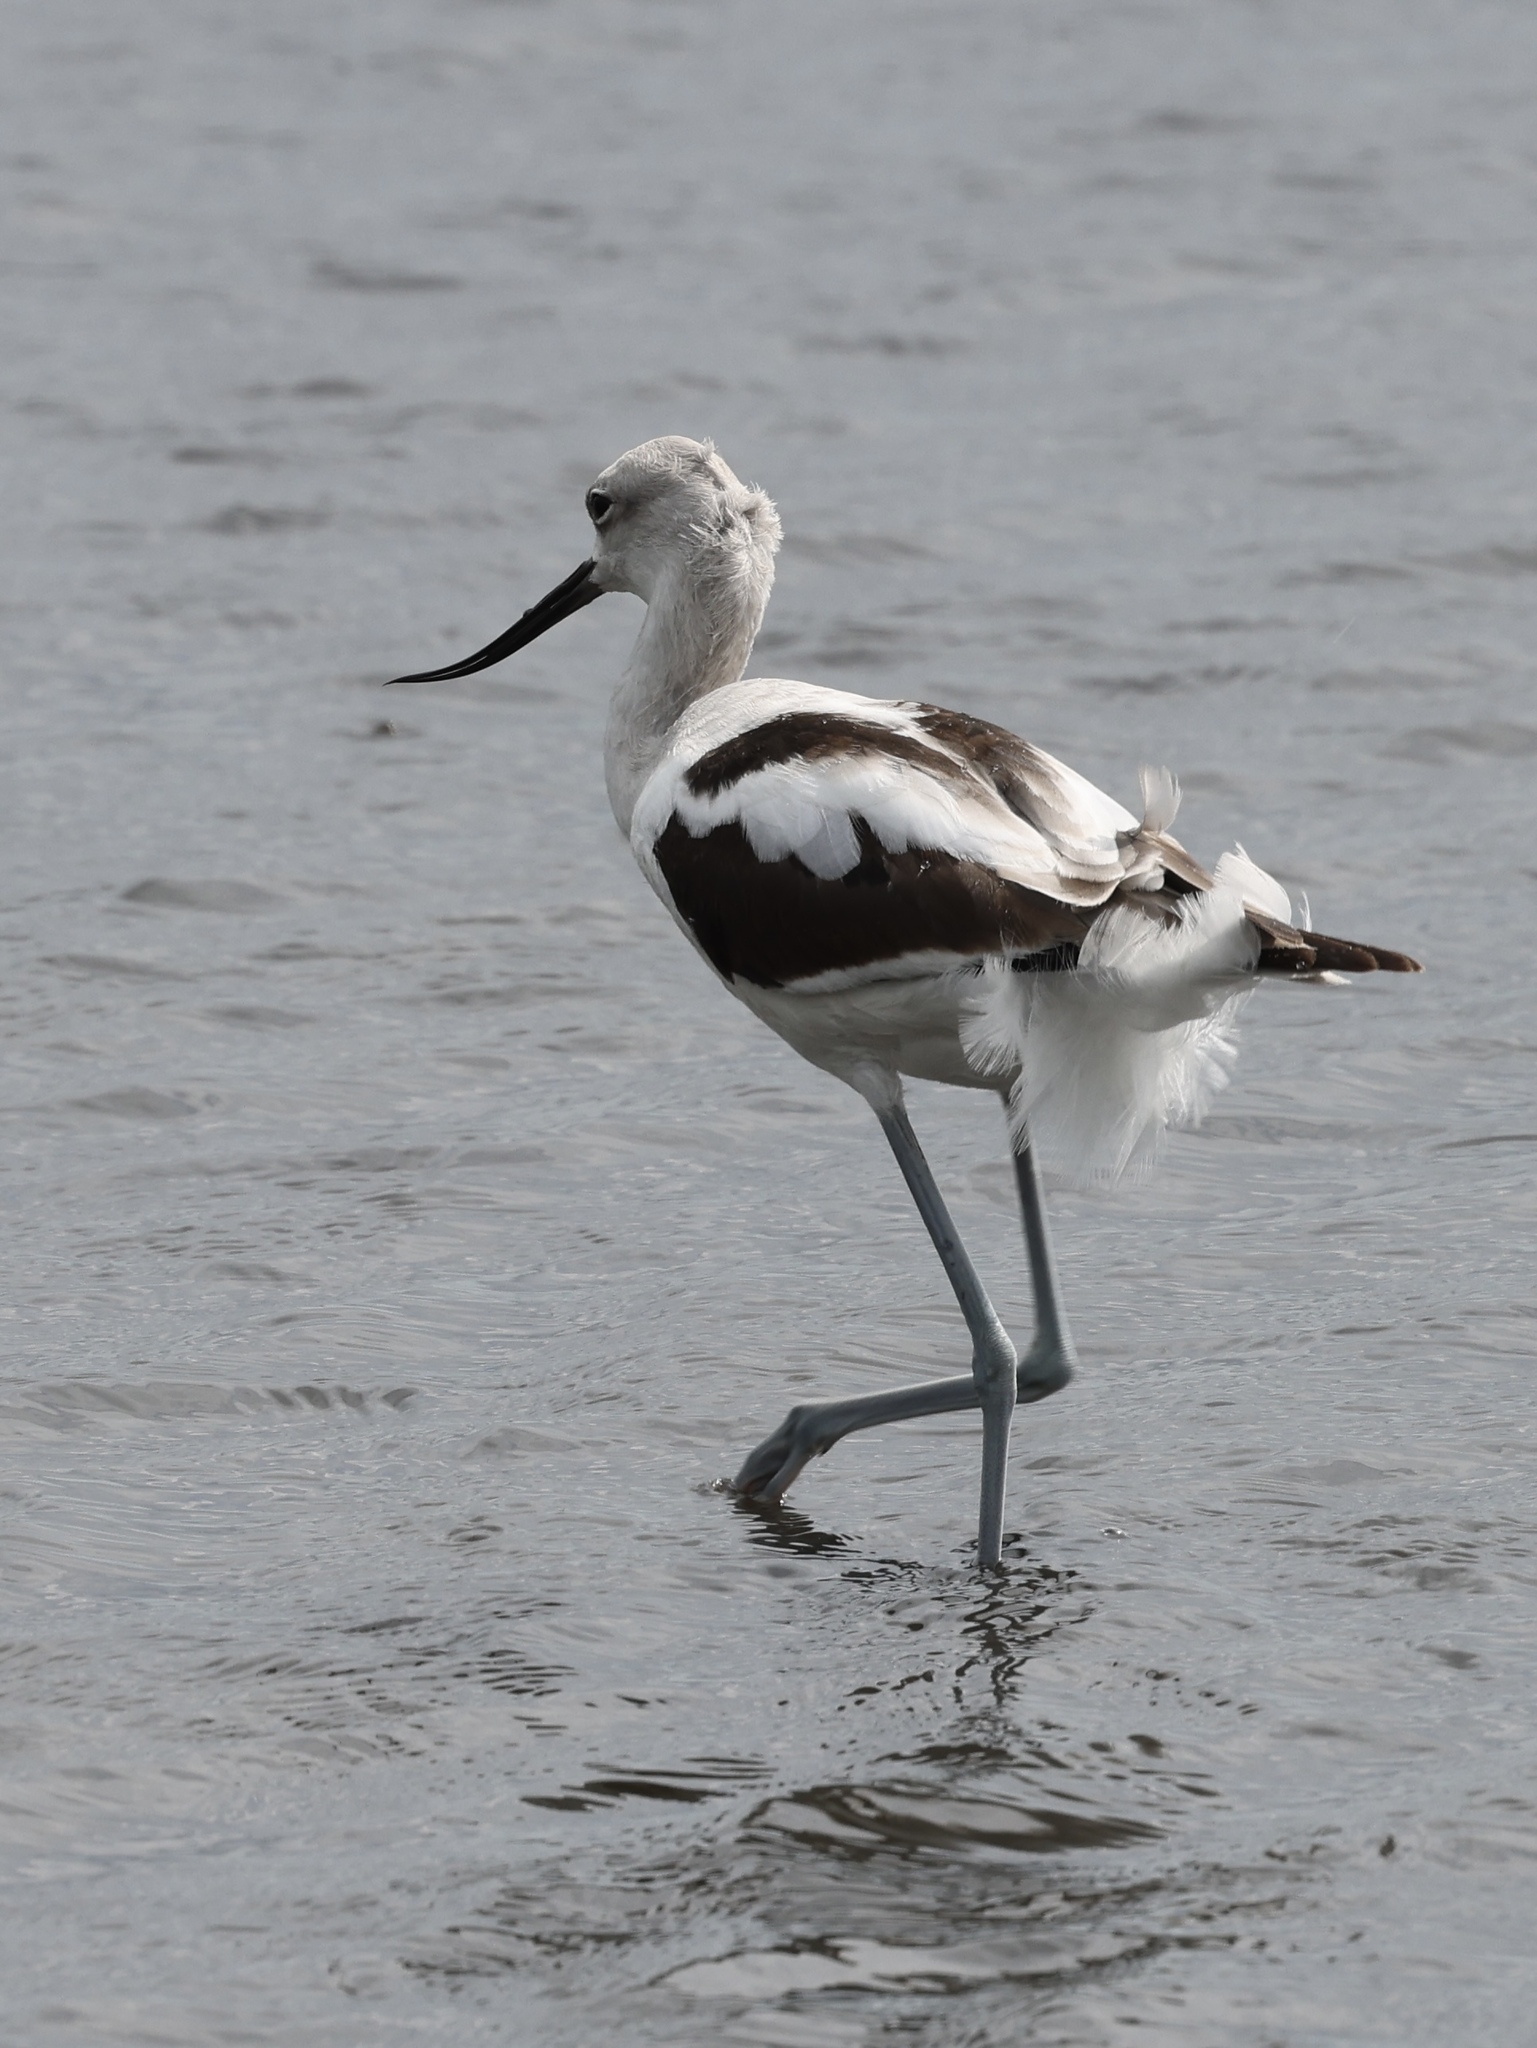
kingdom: Animalia
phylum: Chordata
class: Aves
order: Charadriiformes
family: Recurvirostridae
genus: Recurvirostra
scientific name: Recurvirostra americana
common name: American avocet
